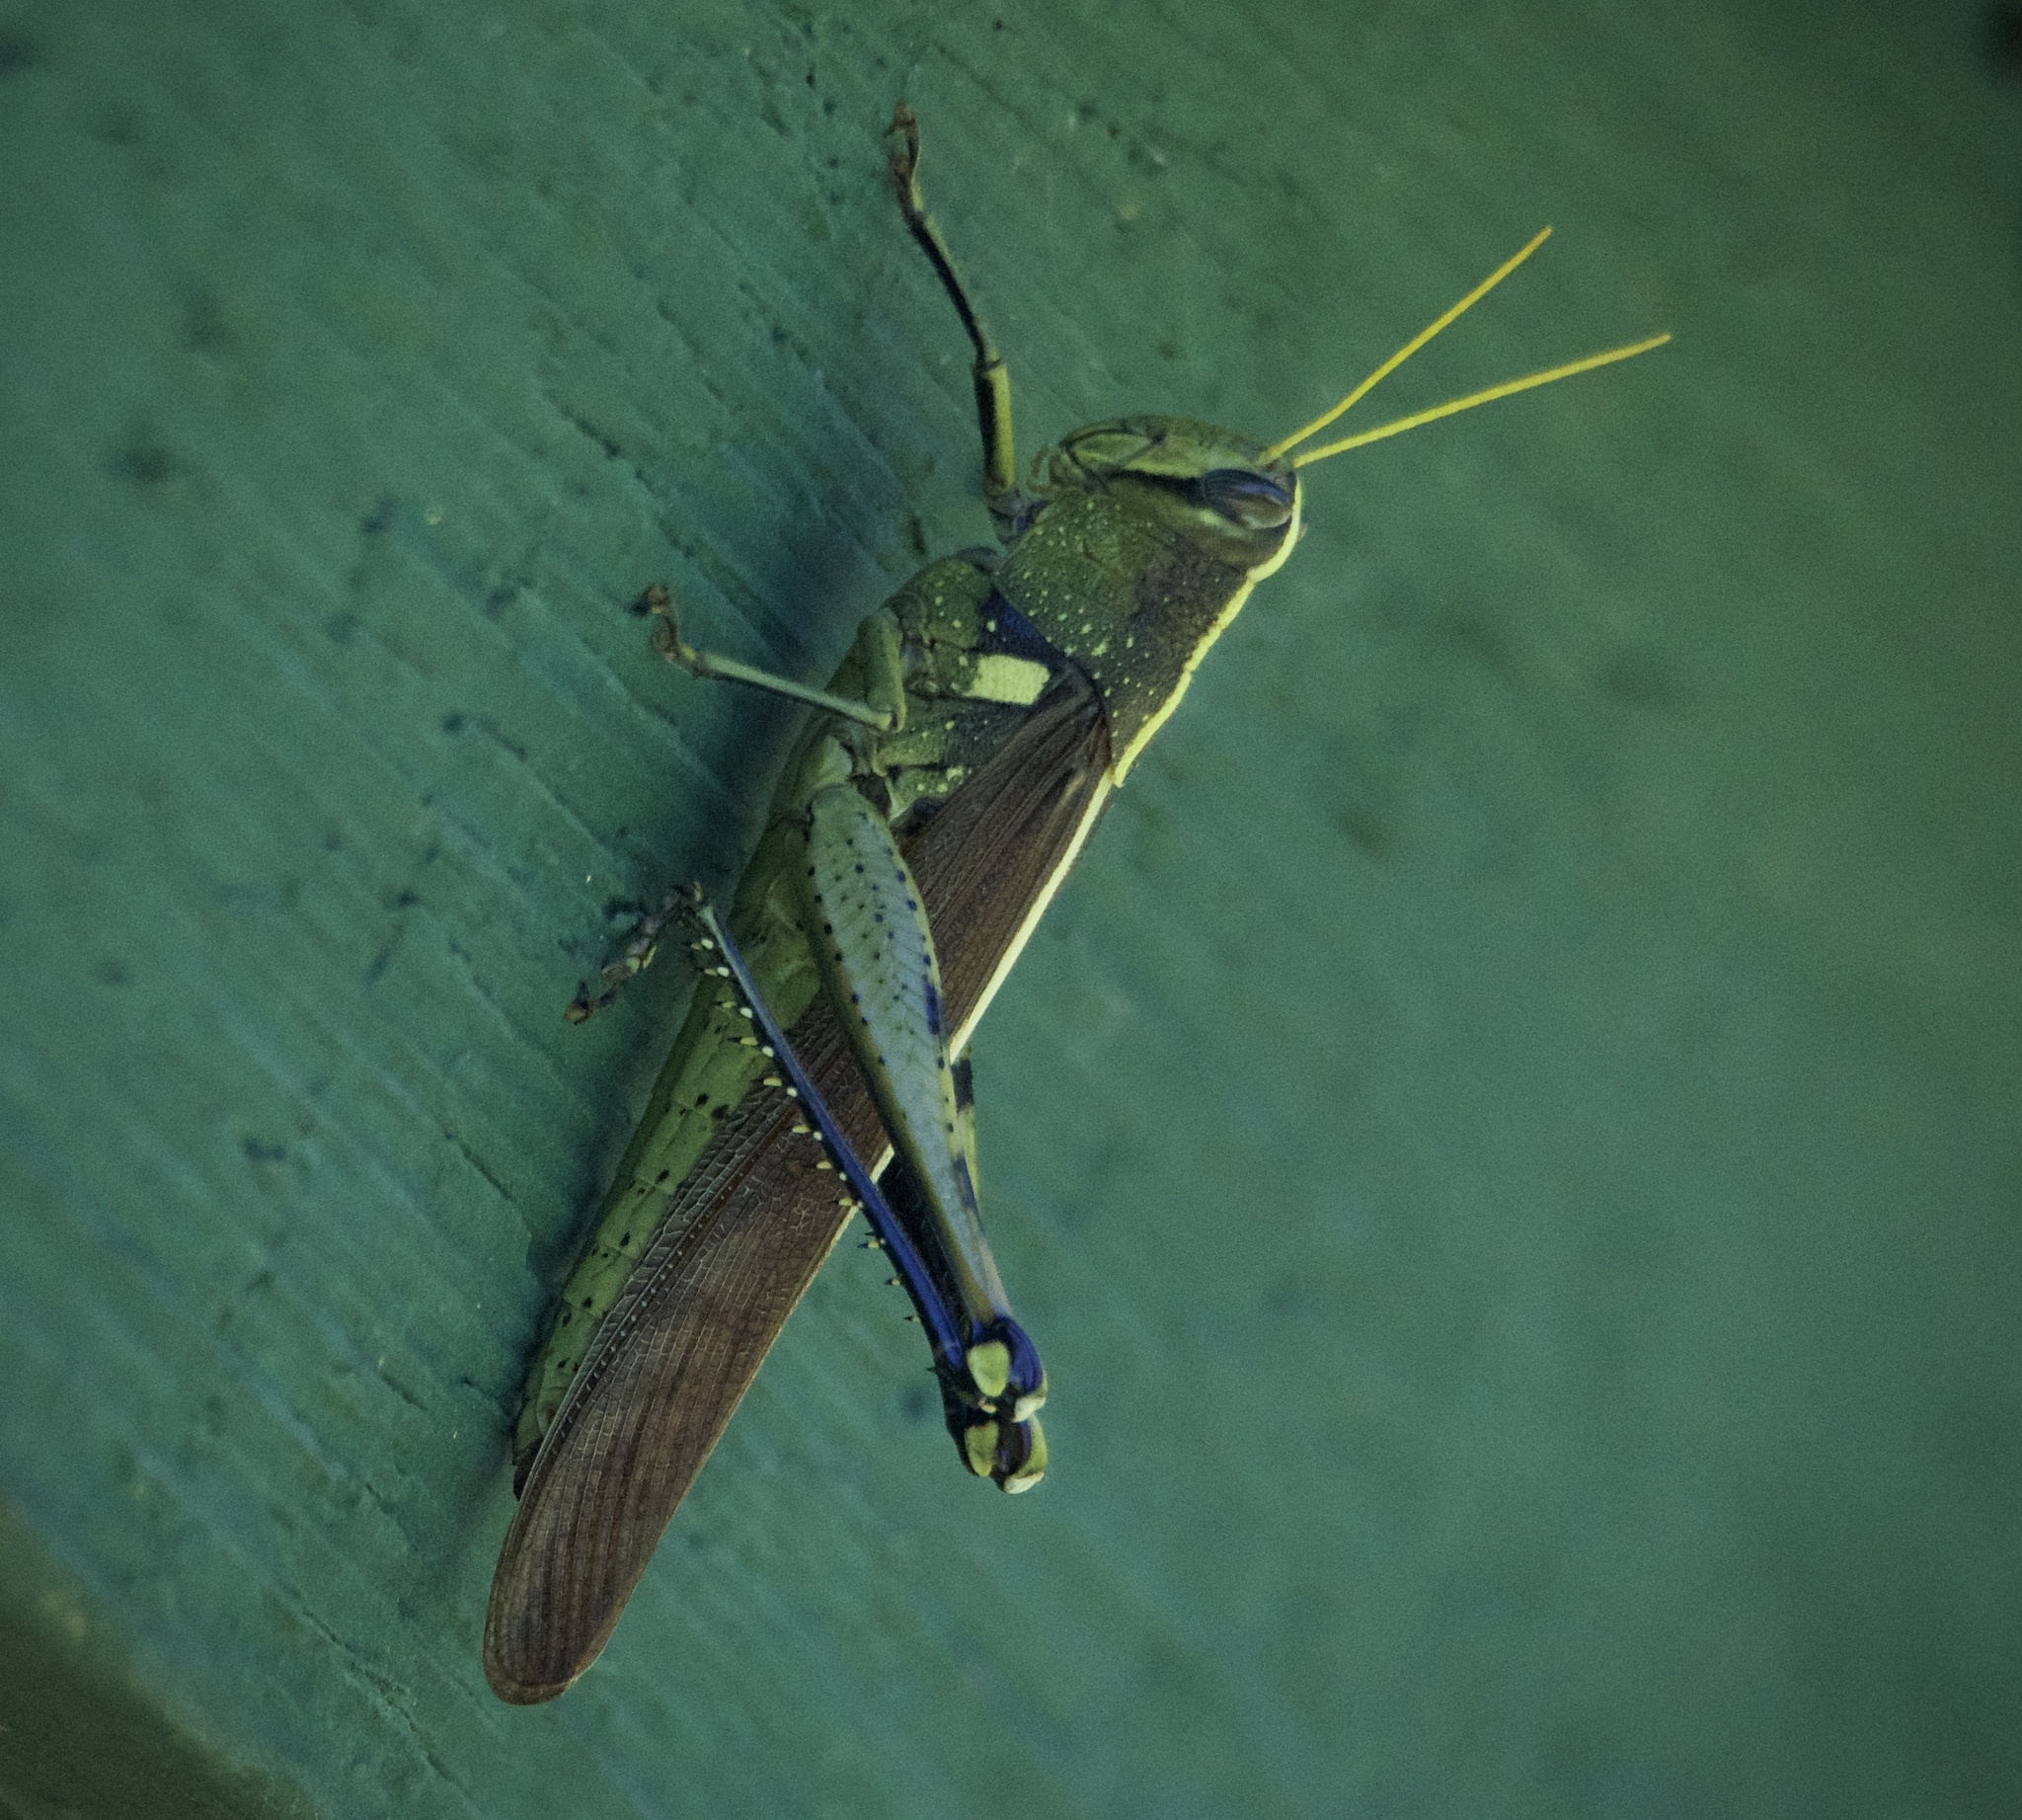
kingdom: Animalia
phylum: Arthropoda
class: Insecta
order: Orthoptera
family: Acrididae
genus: Schistocerca
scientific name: Schistocerca obscura
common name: Obscure bird grasshopper
